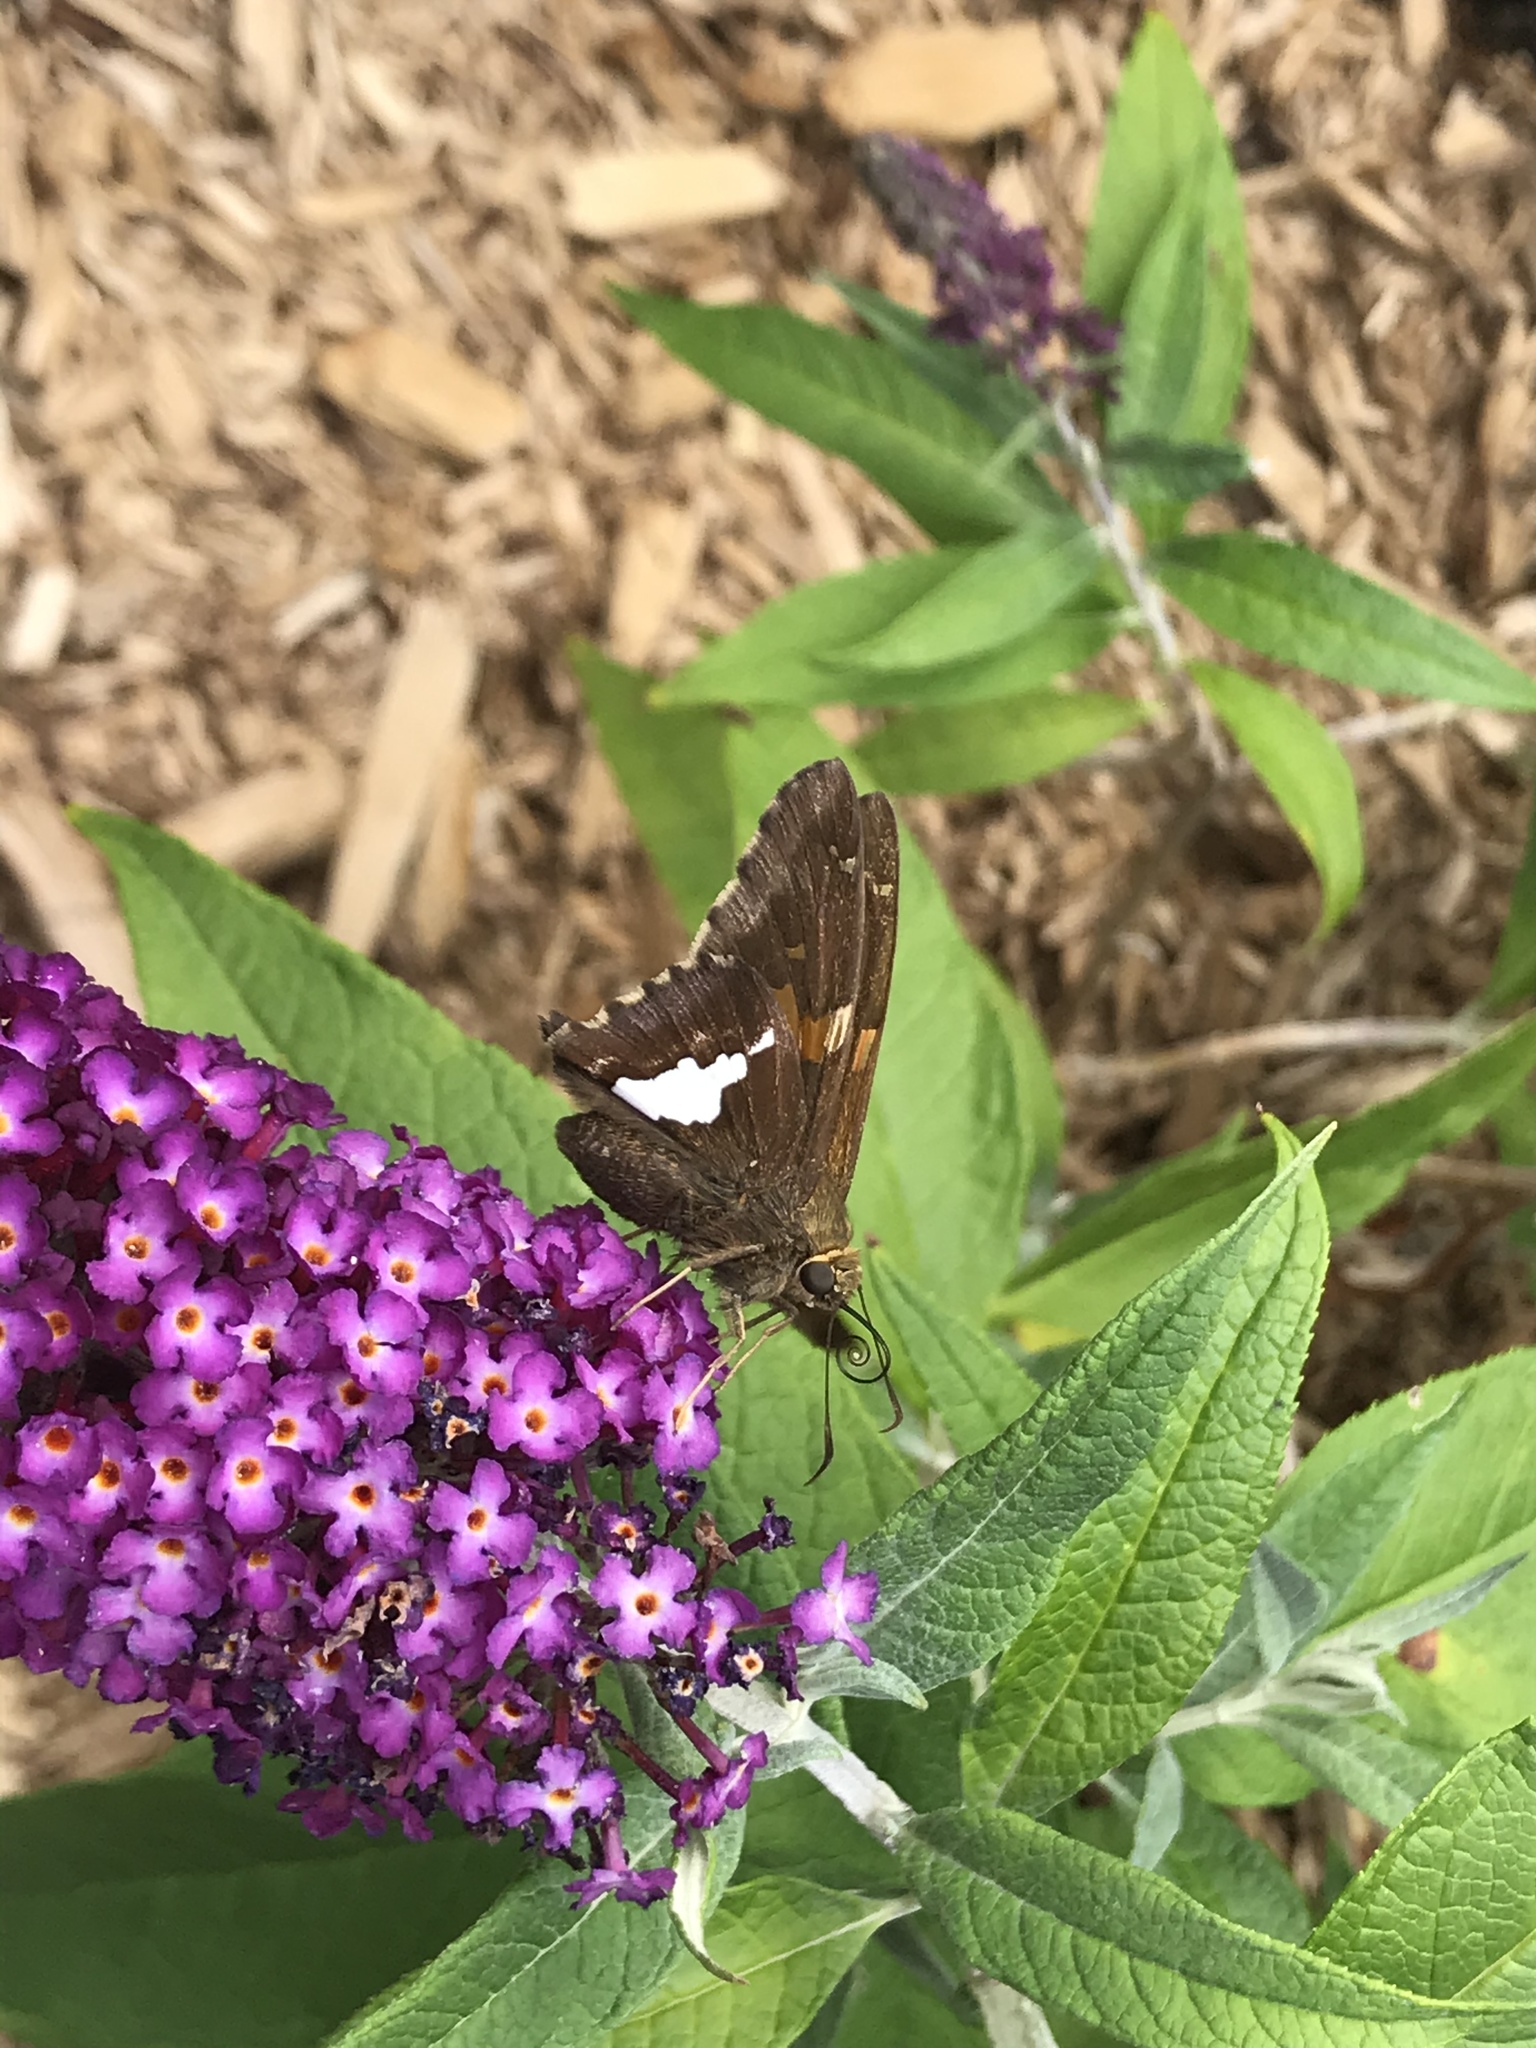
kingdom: Animalia
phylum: Arthropoda
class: Insecta
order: Lepidoptera
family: Hesperiidae
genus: Epargyreus
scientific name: Epargyreus clarus
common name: Silver-spotted skipper
